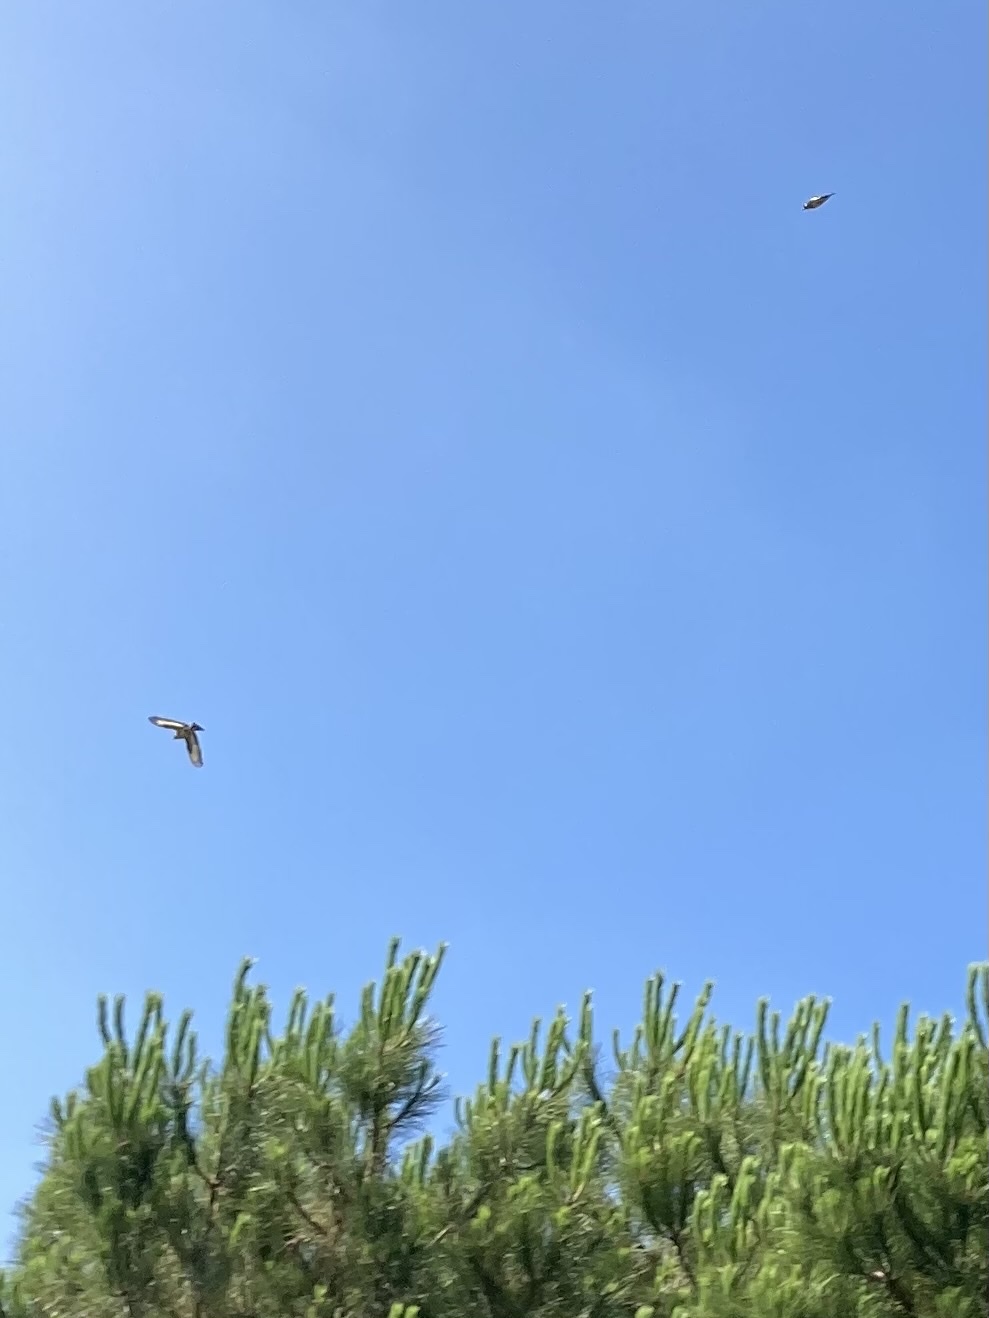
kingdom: Animalia
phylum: Chordata
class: Aves
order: Passeriformes
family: Fringillidae
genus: Carduelis
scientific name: Carduelis carduelis
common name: European goldfinch
